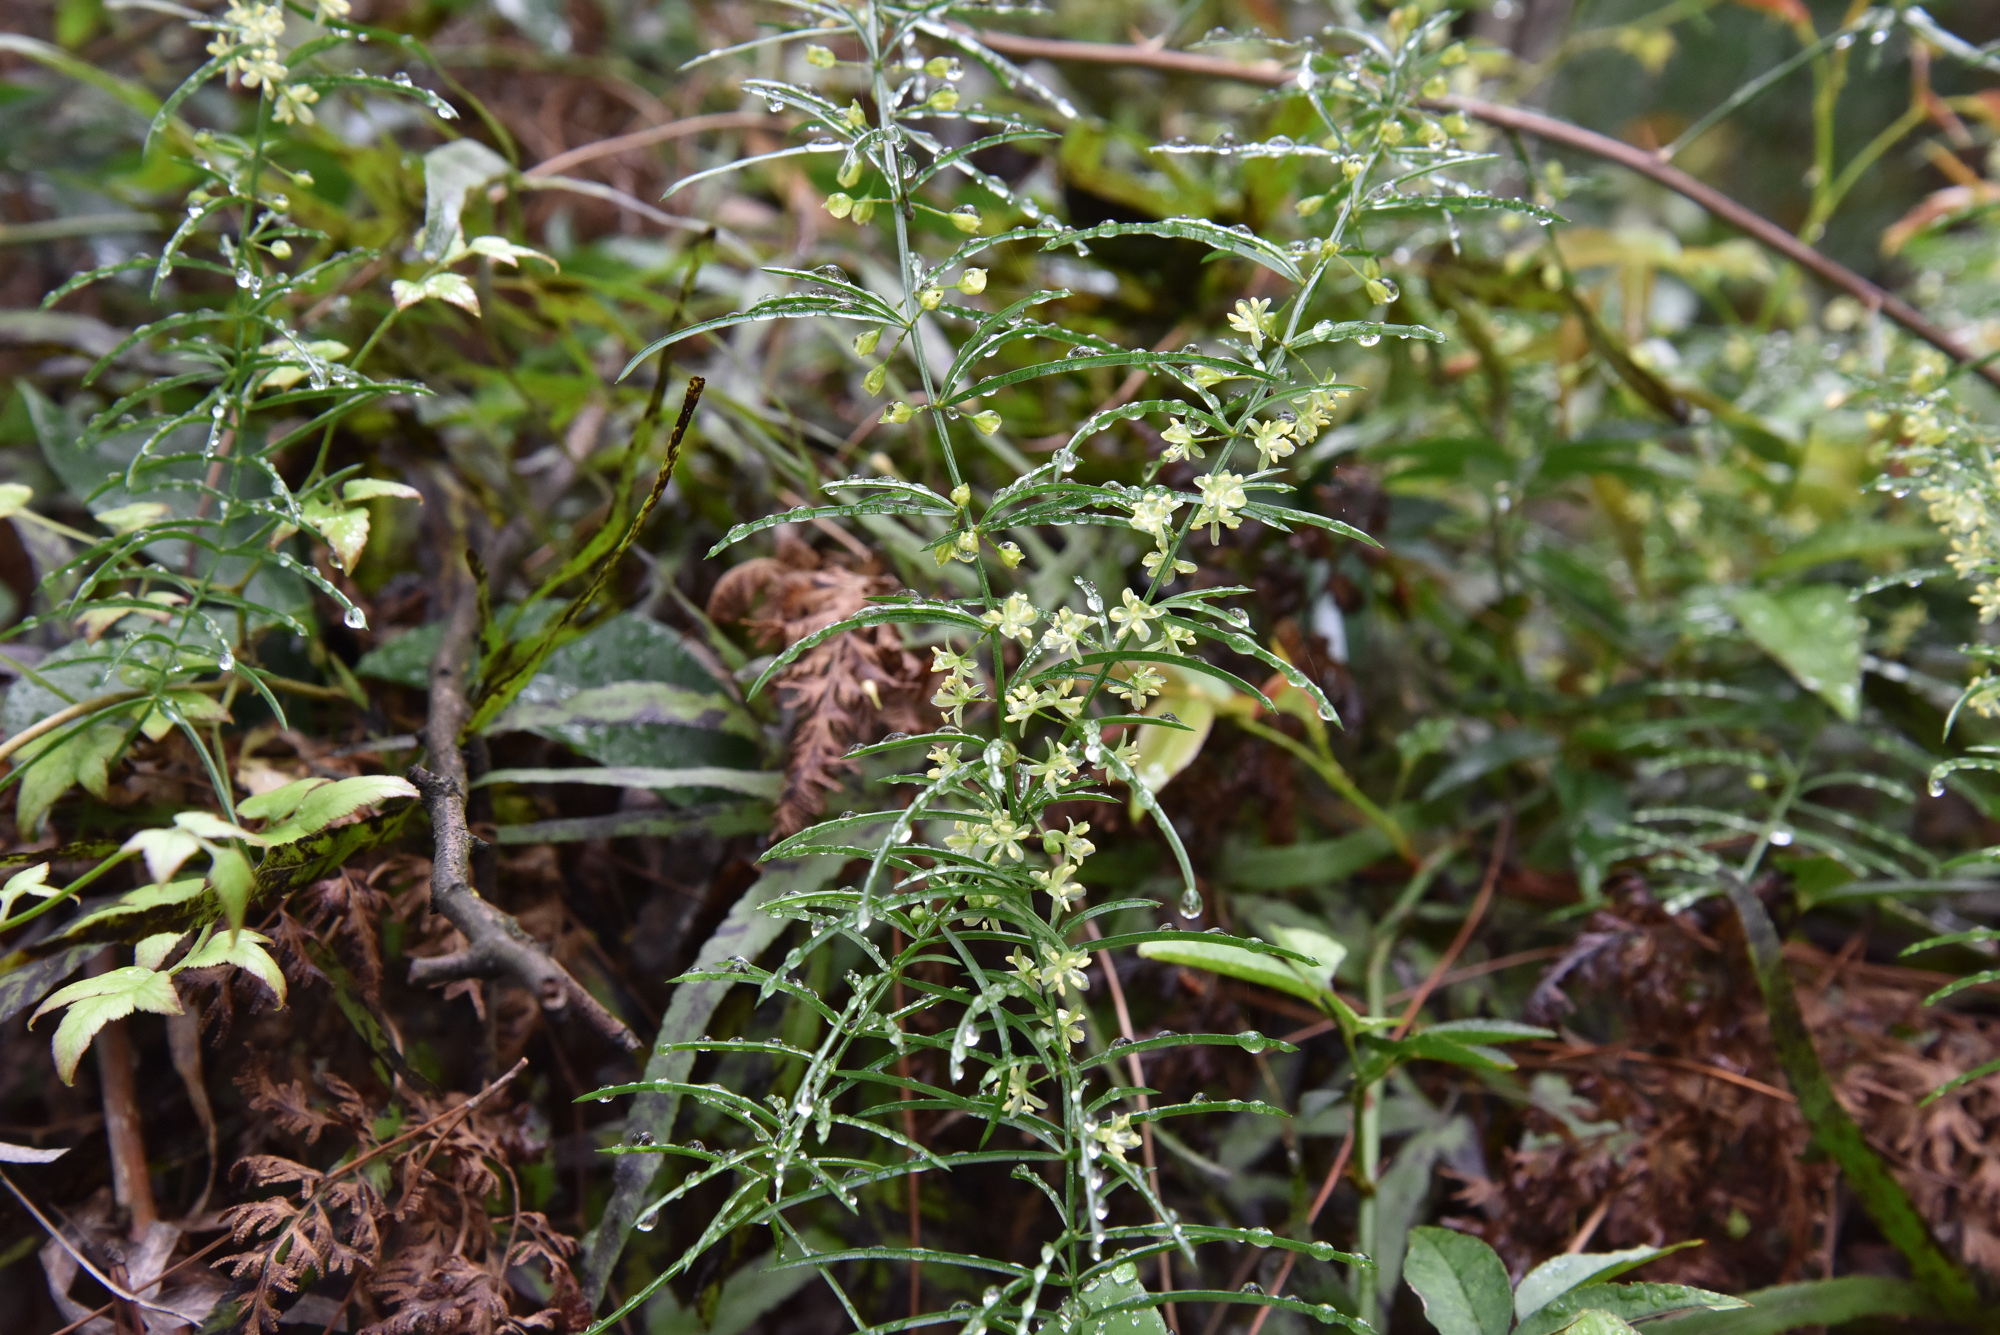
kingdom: Plantae
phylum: Tracheophyta
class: Liliopsida
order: Asparagales
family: Asparagaceae
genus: Asparagus
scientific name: Asparagus cochinchinensis
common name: Chinese asparagus
